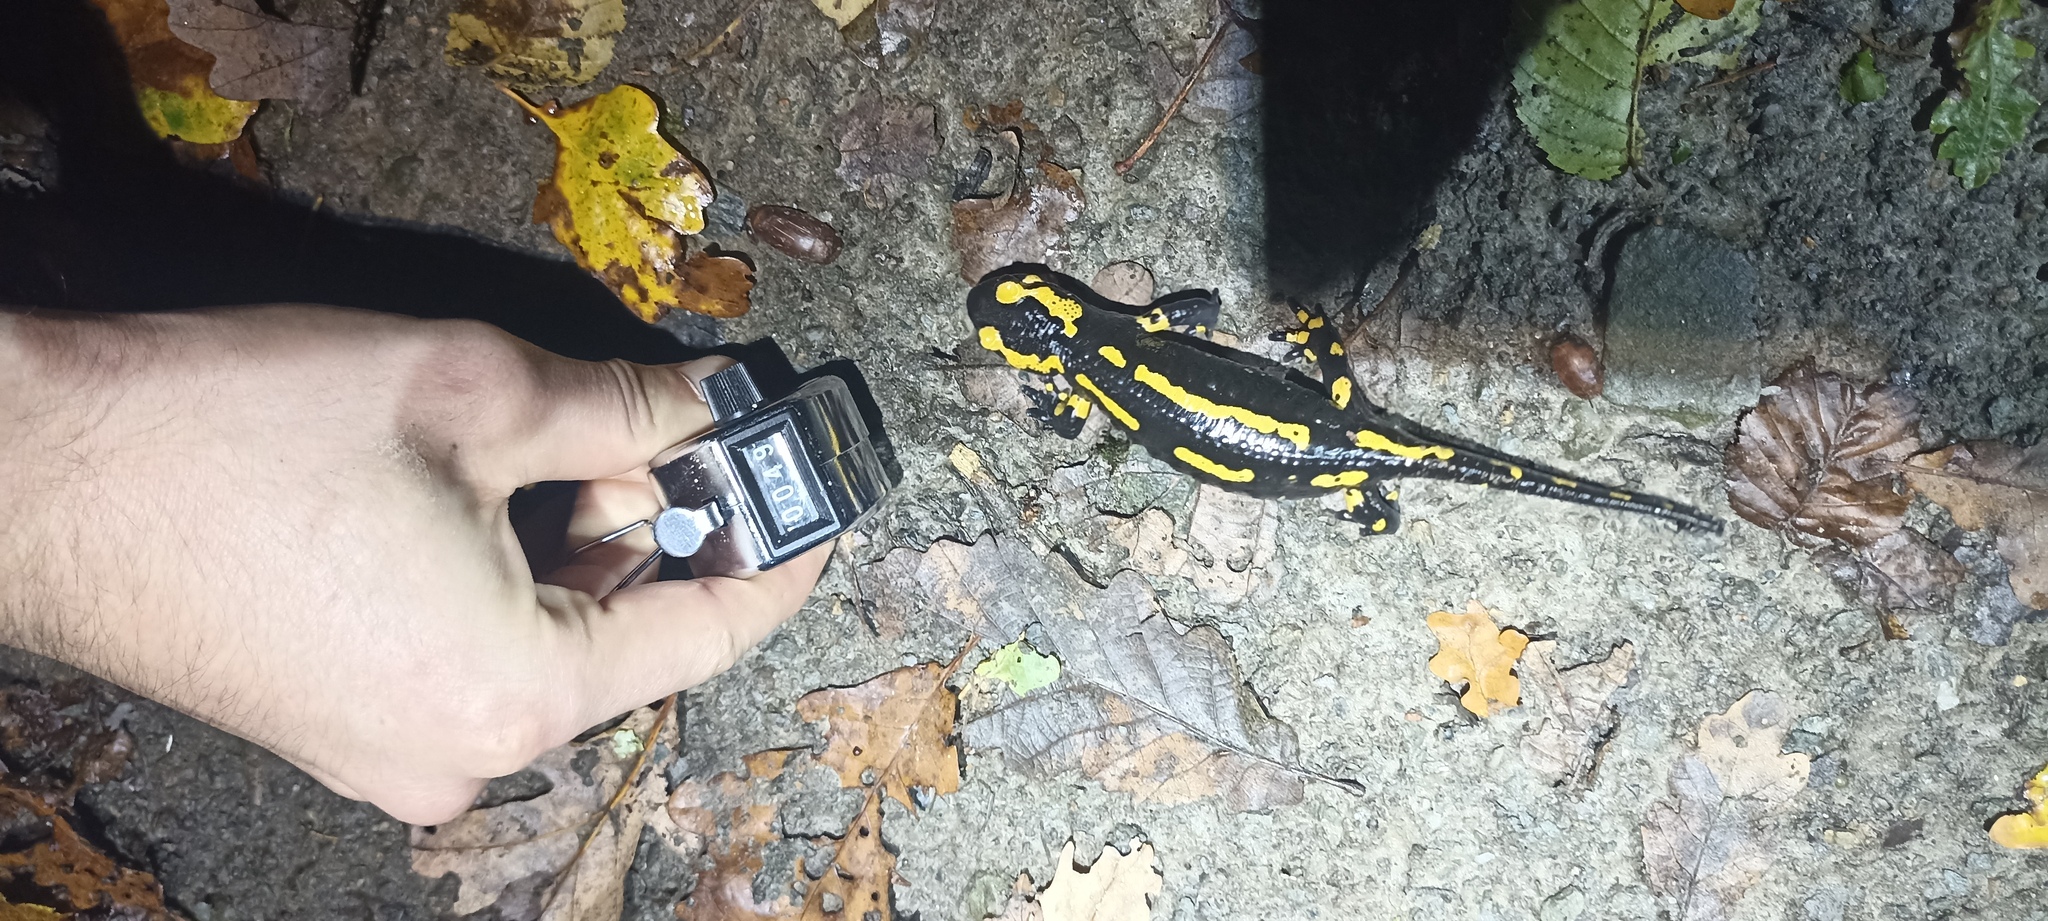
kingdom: Animalia
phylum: Chordata
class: Amphibia
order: Caudata
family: Salamandridae
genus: Salamandra
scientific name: Salamandra salamandra
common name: Fire salamander
